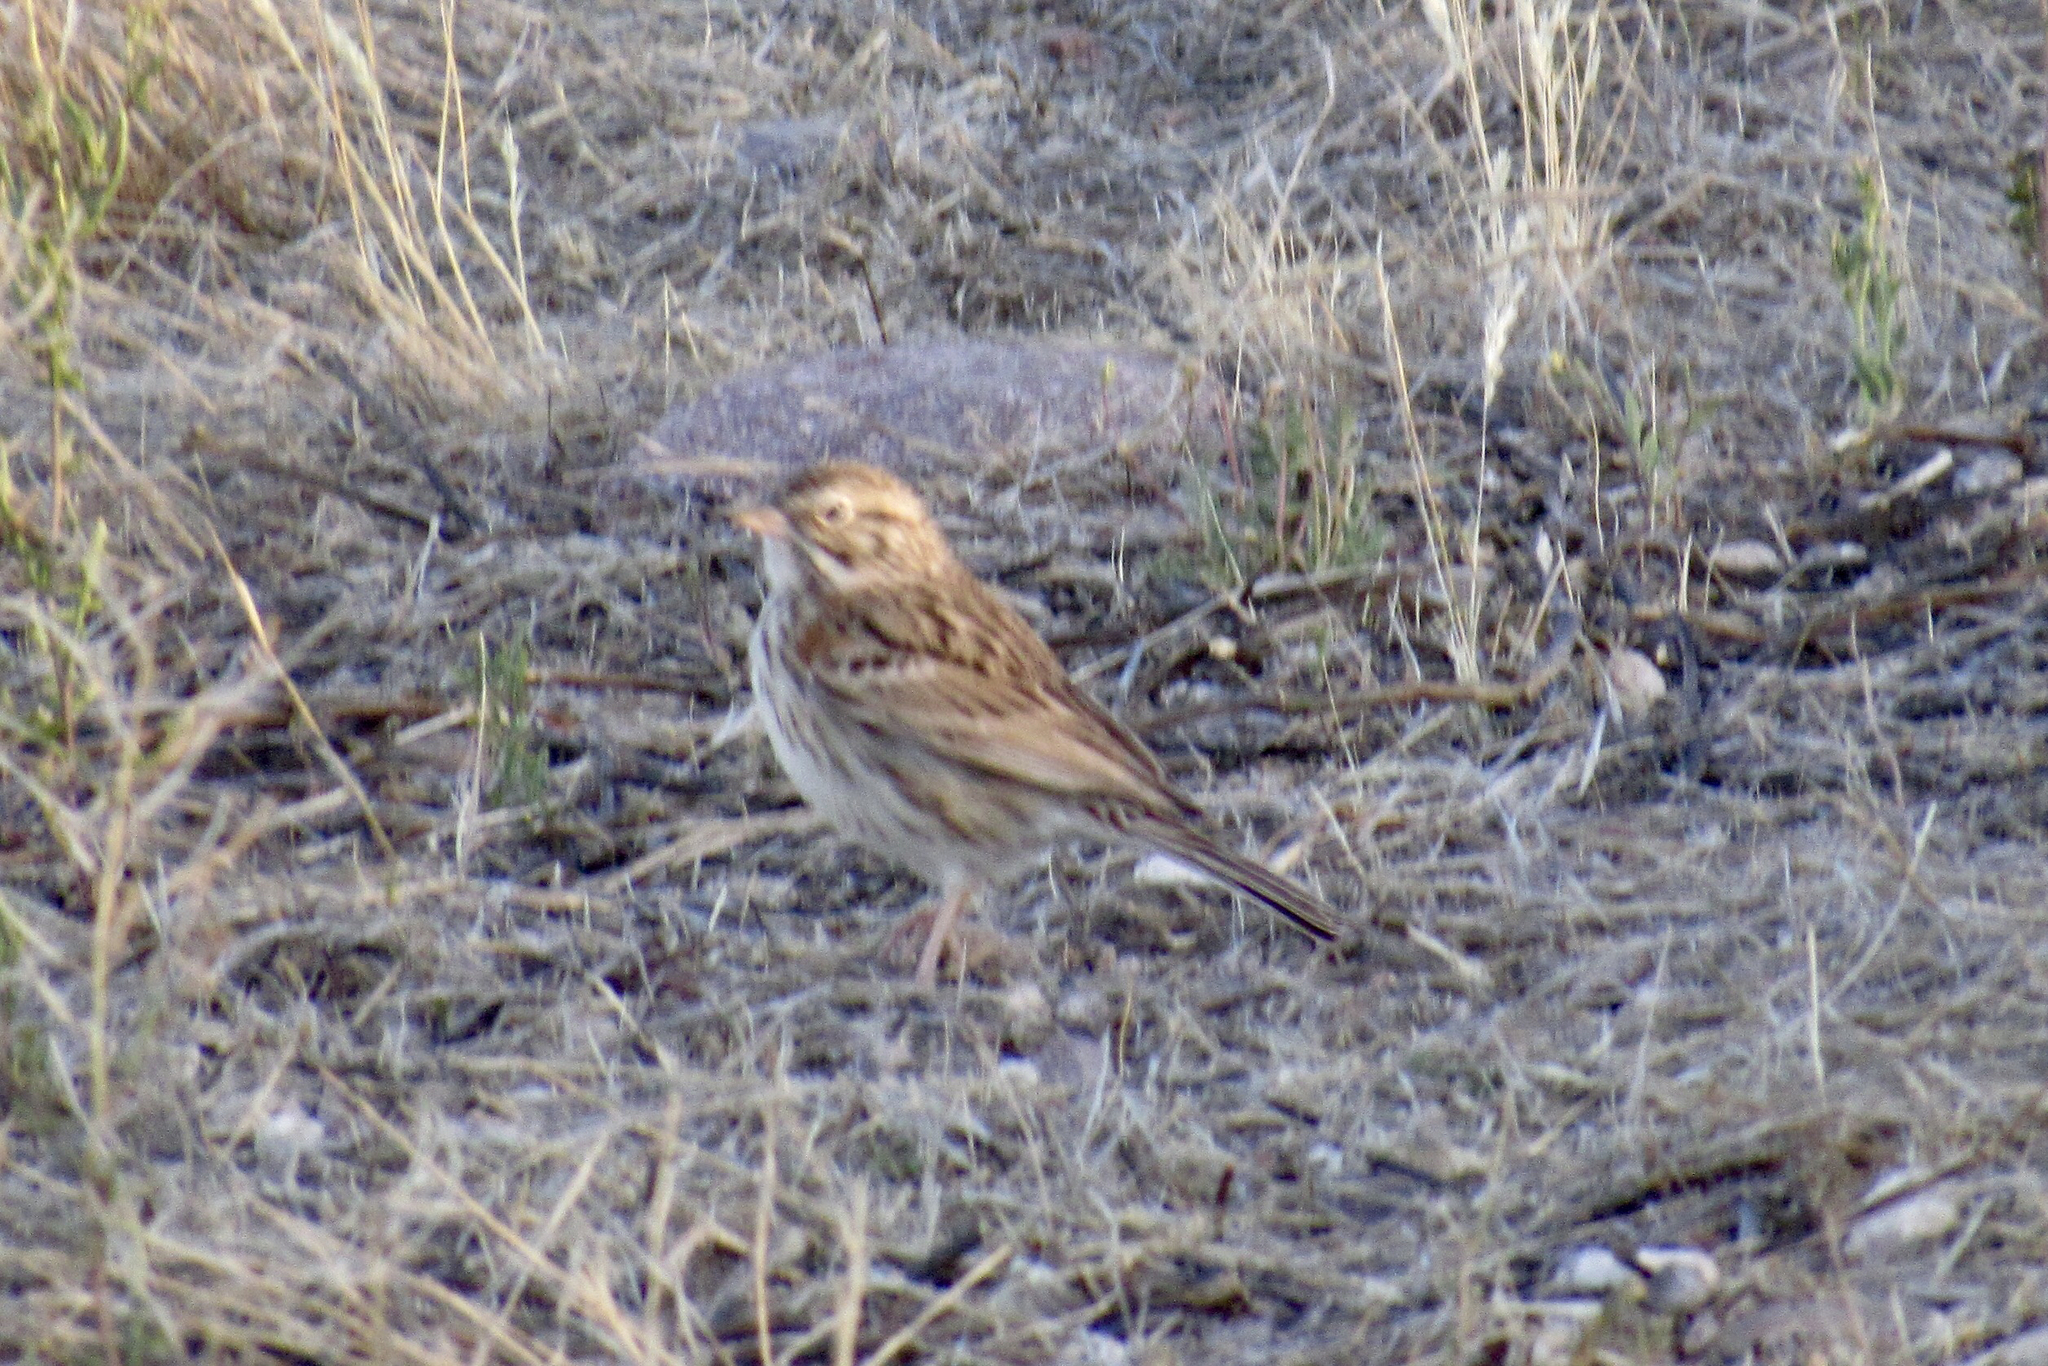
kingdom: Animalia
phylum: Chordata
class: Aves
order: Passeriformes
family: Passerellidae
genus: Pooecetes
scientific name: Pooecetes gramineus
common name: Vesper sparrow
